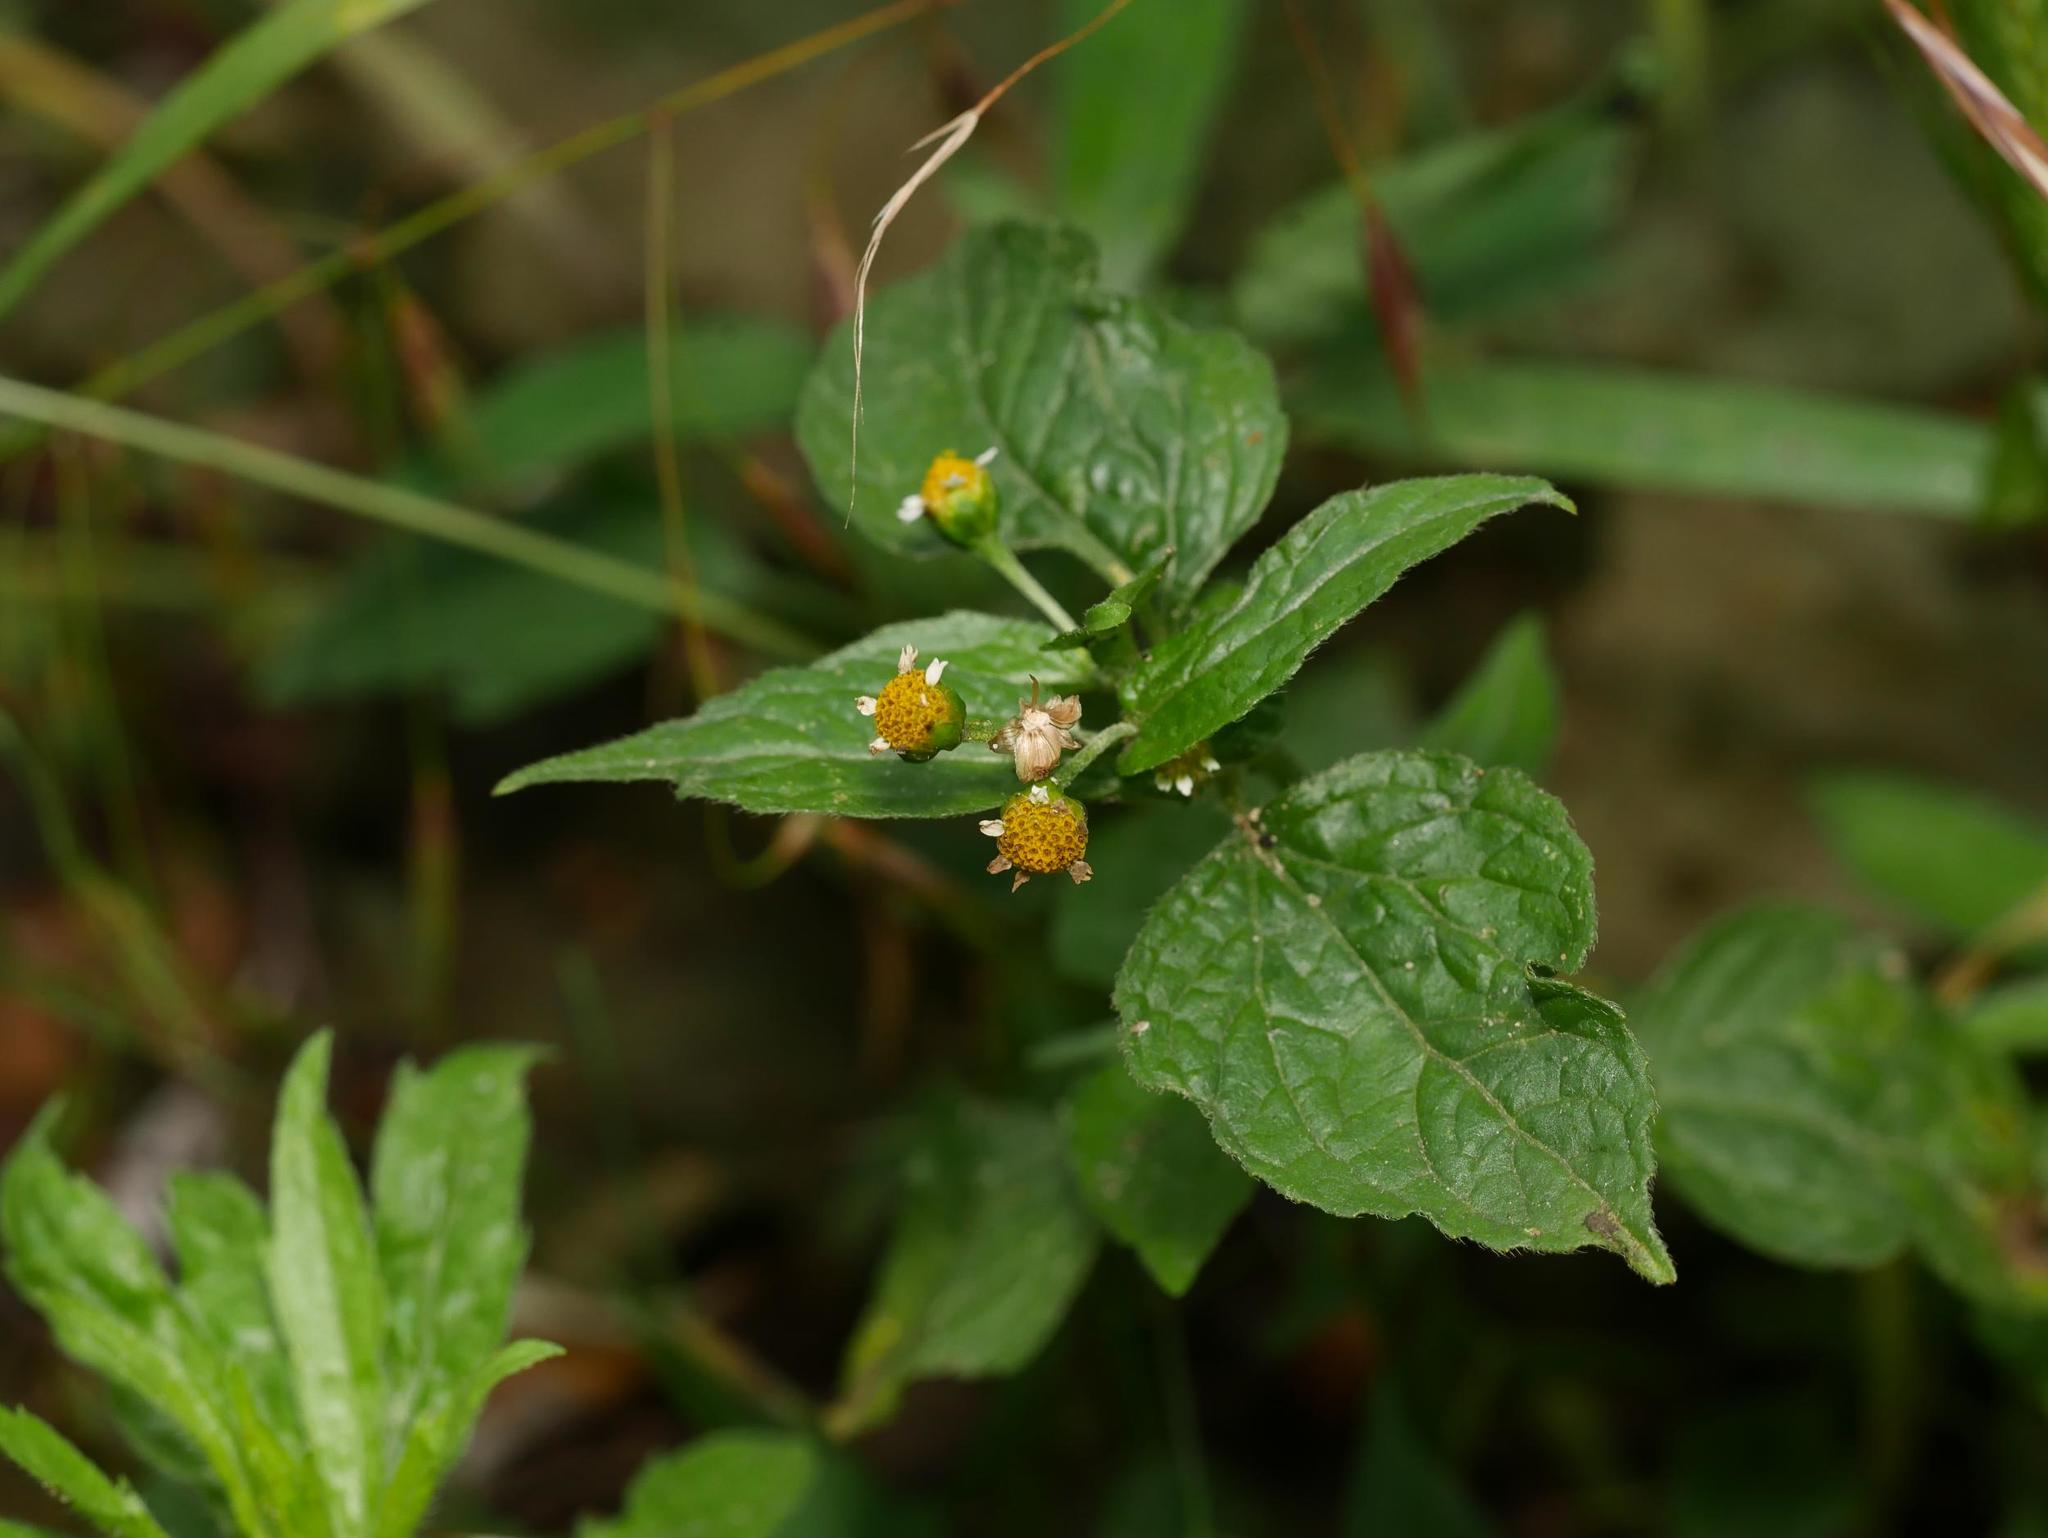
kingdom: Plantae
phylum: Tracheophyta
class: Magnoliopsida
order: Asterales
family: Asteraceae
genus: Galinsoga
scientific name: Galinsoga parviflora
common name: Gallant soldier
